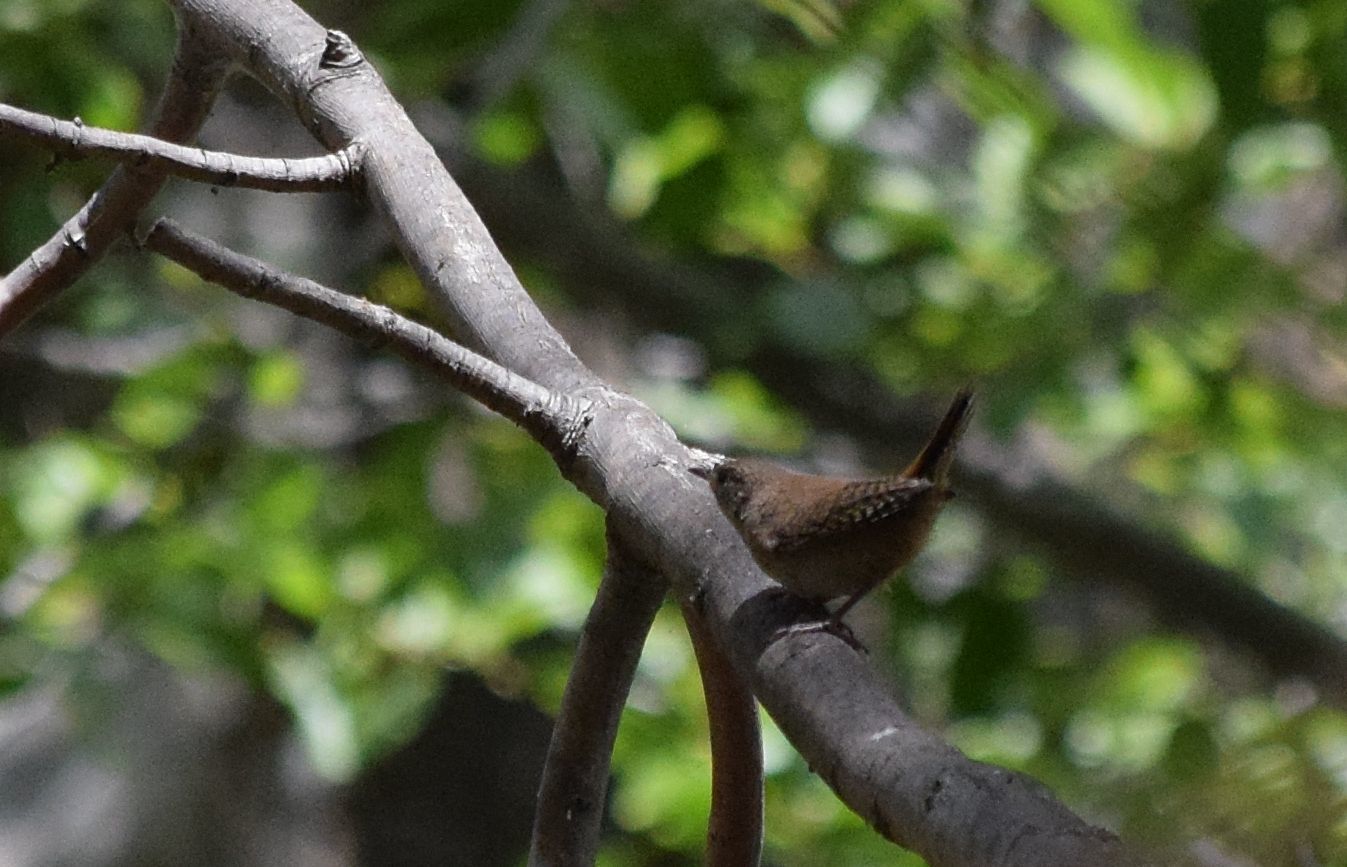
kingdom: Animalia
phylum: Chordata
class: Aves
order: Passeriformes
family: Troglodytidae
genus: Troglodytes
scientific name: Troglodytes aedon
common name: House wren
